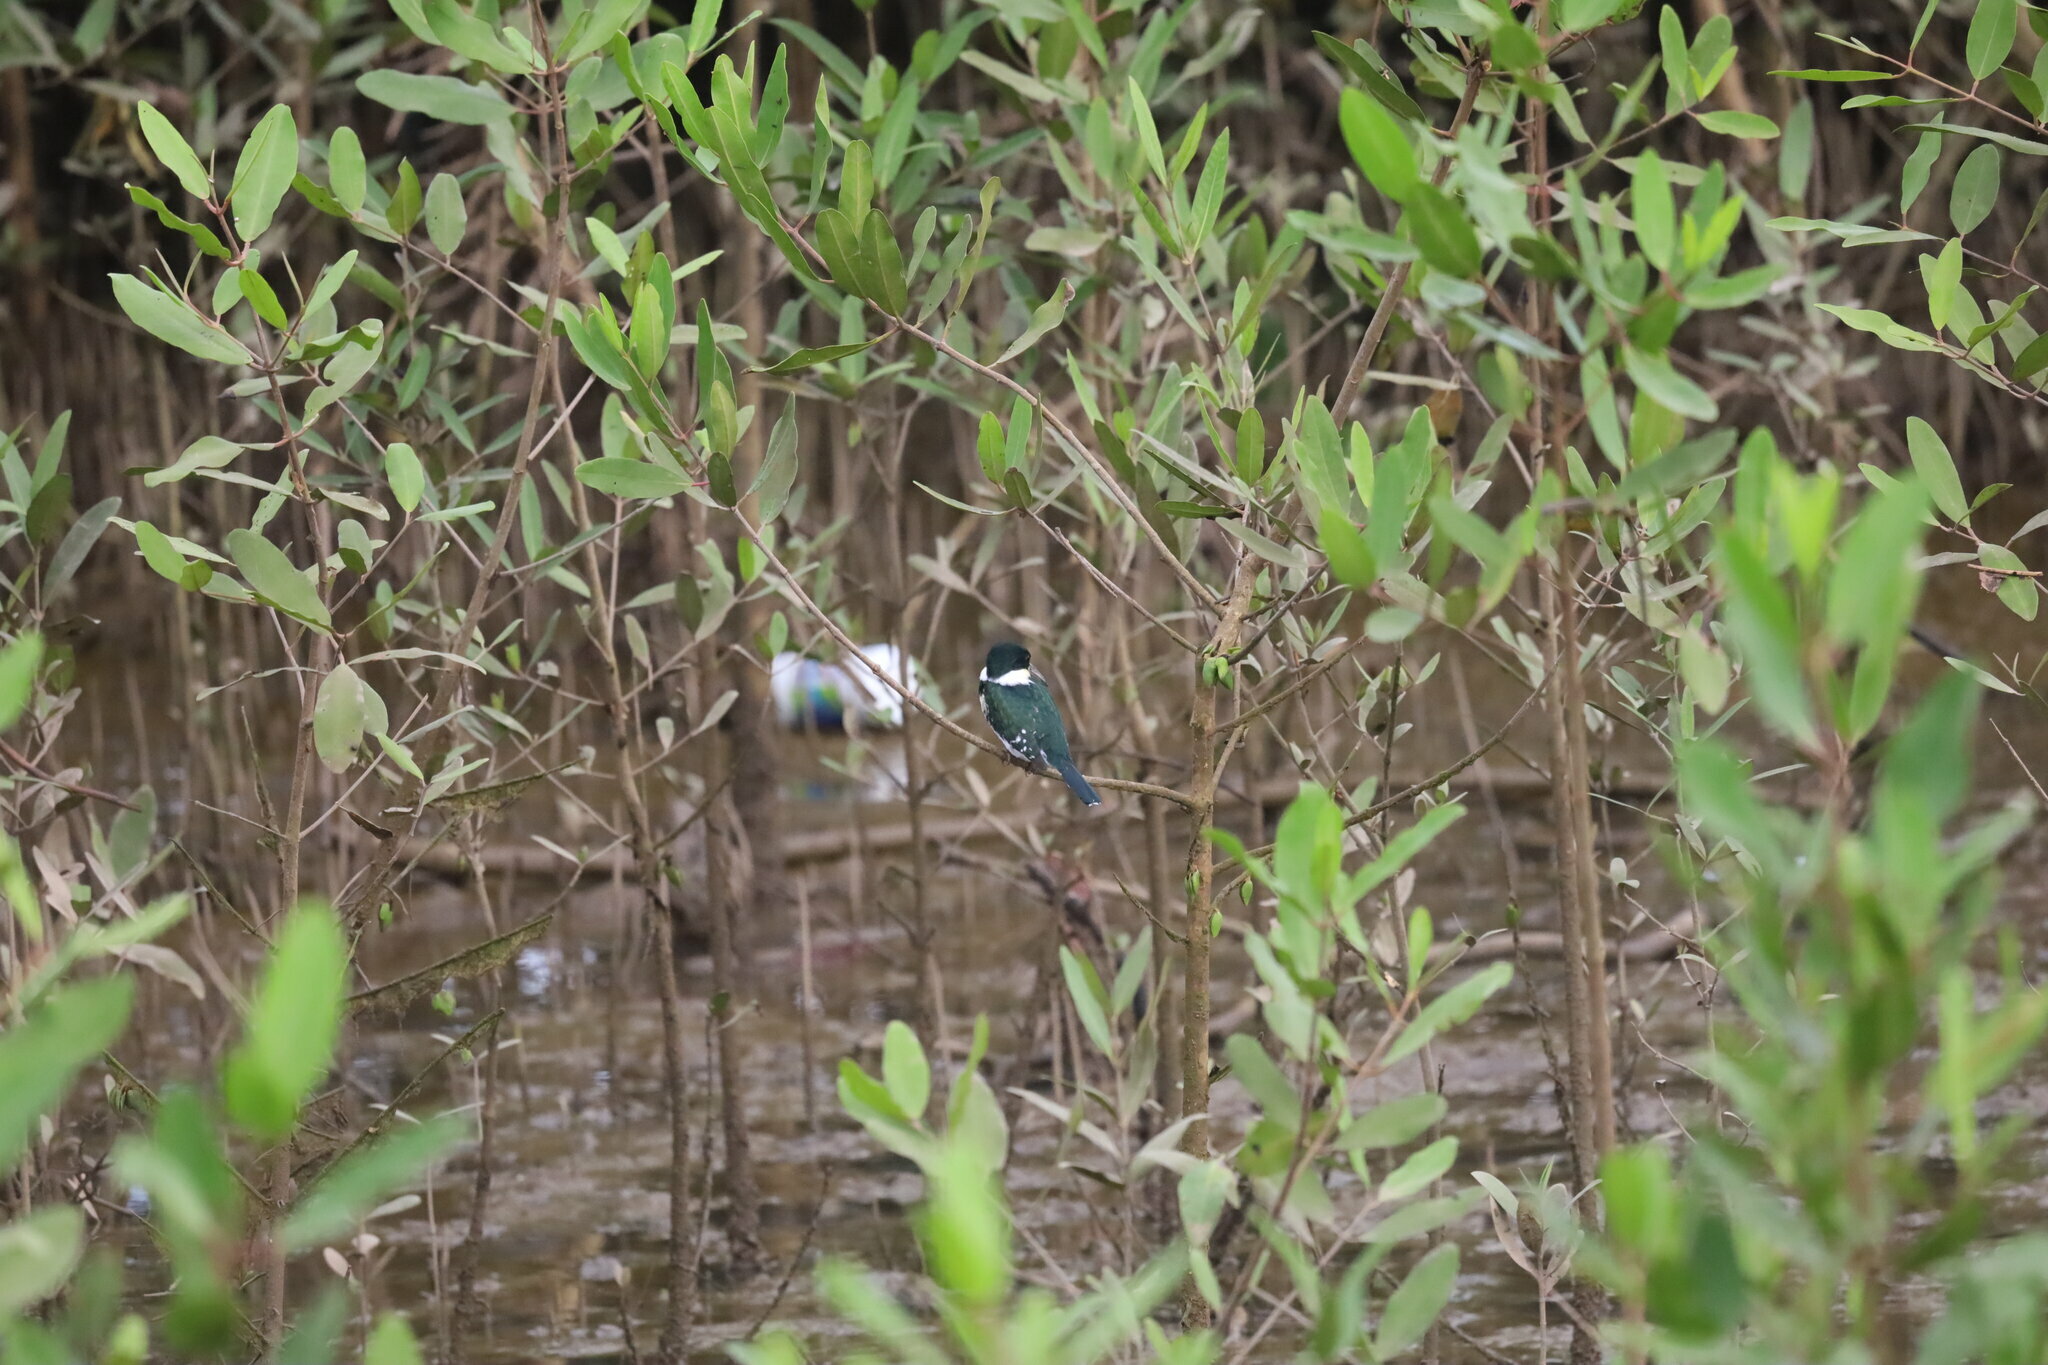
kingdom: Animalia
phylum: Chordata
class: Aves
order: Coraciiformes
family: Alcedinidae
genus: Chloroceryle
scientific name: Chloroceryle americana
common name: Green kingfisher
